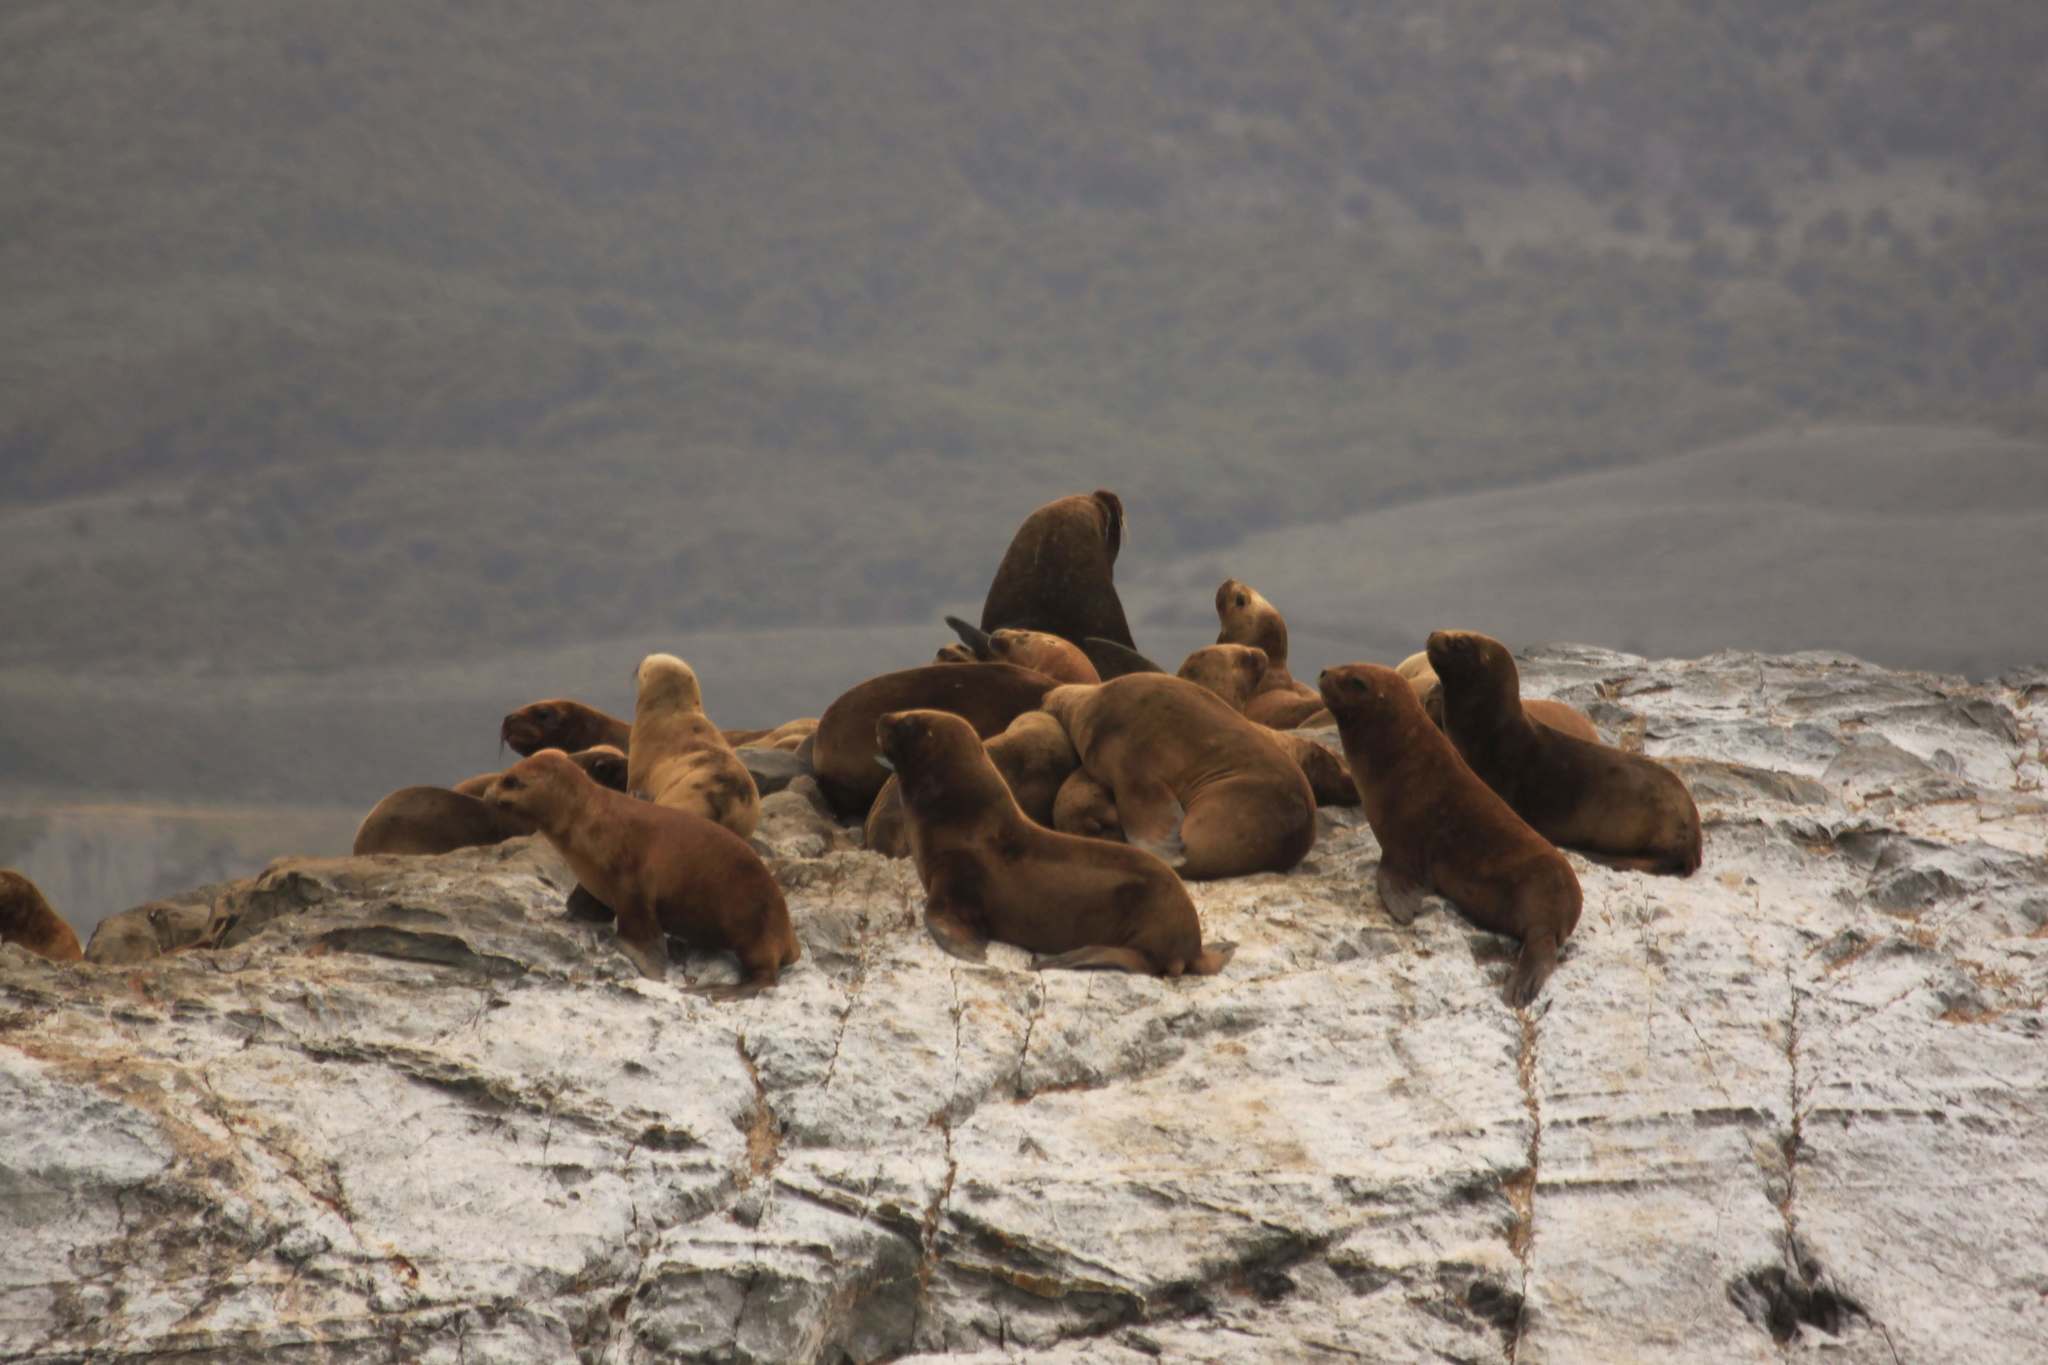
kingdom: Animalia
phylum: Chordata
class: Mammalia
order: Carnivora
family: Otariidae
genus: Otaria
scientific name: Otaria byronia
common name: South american sea lion
